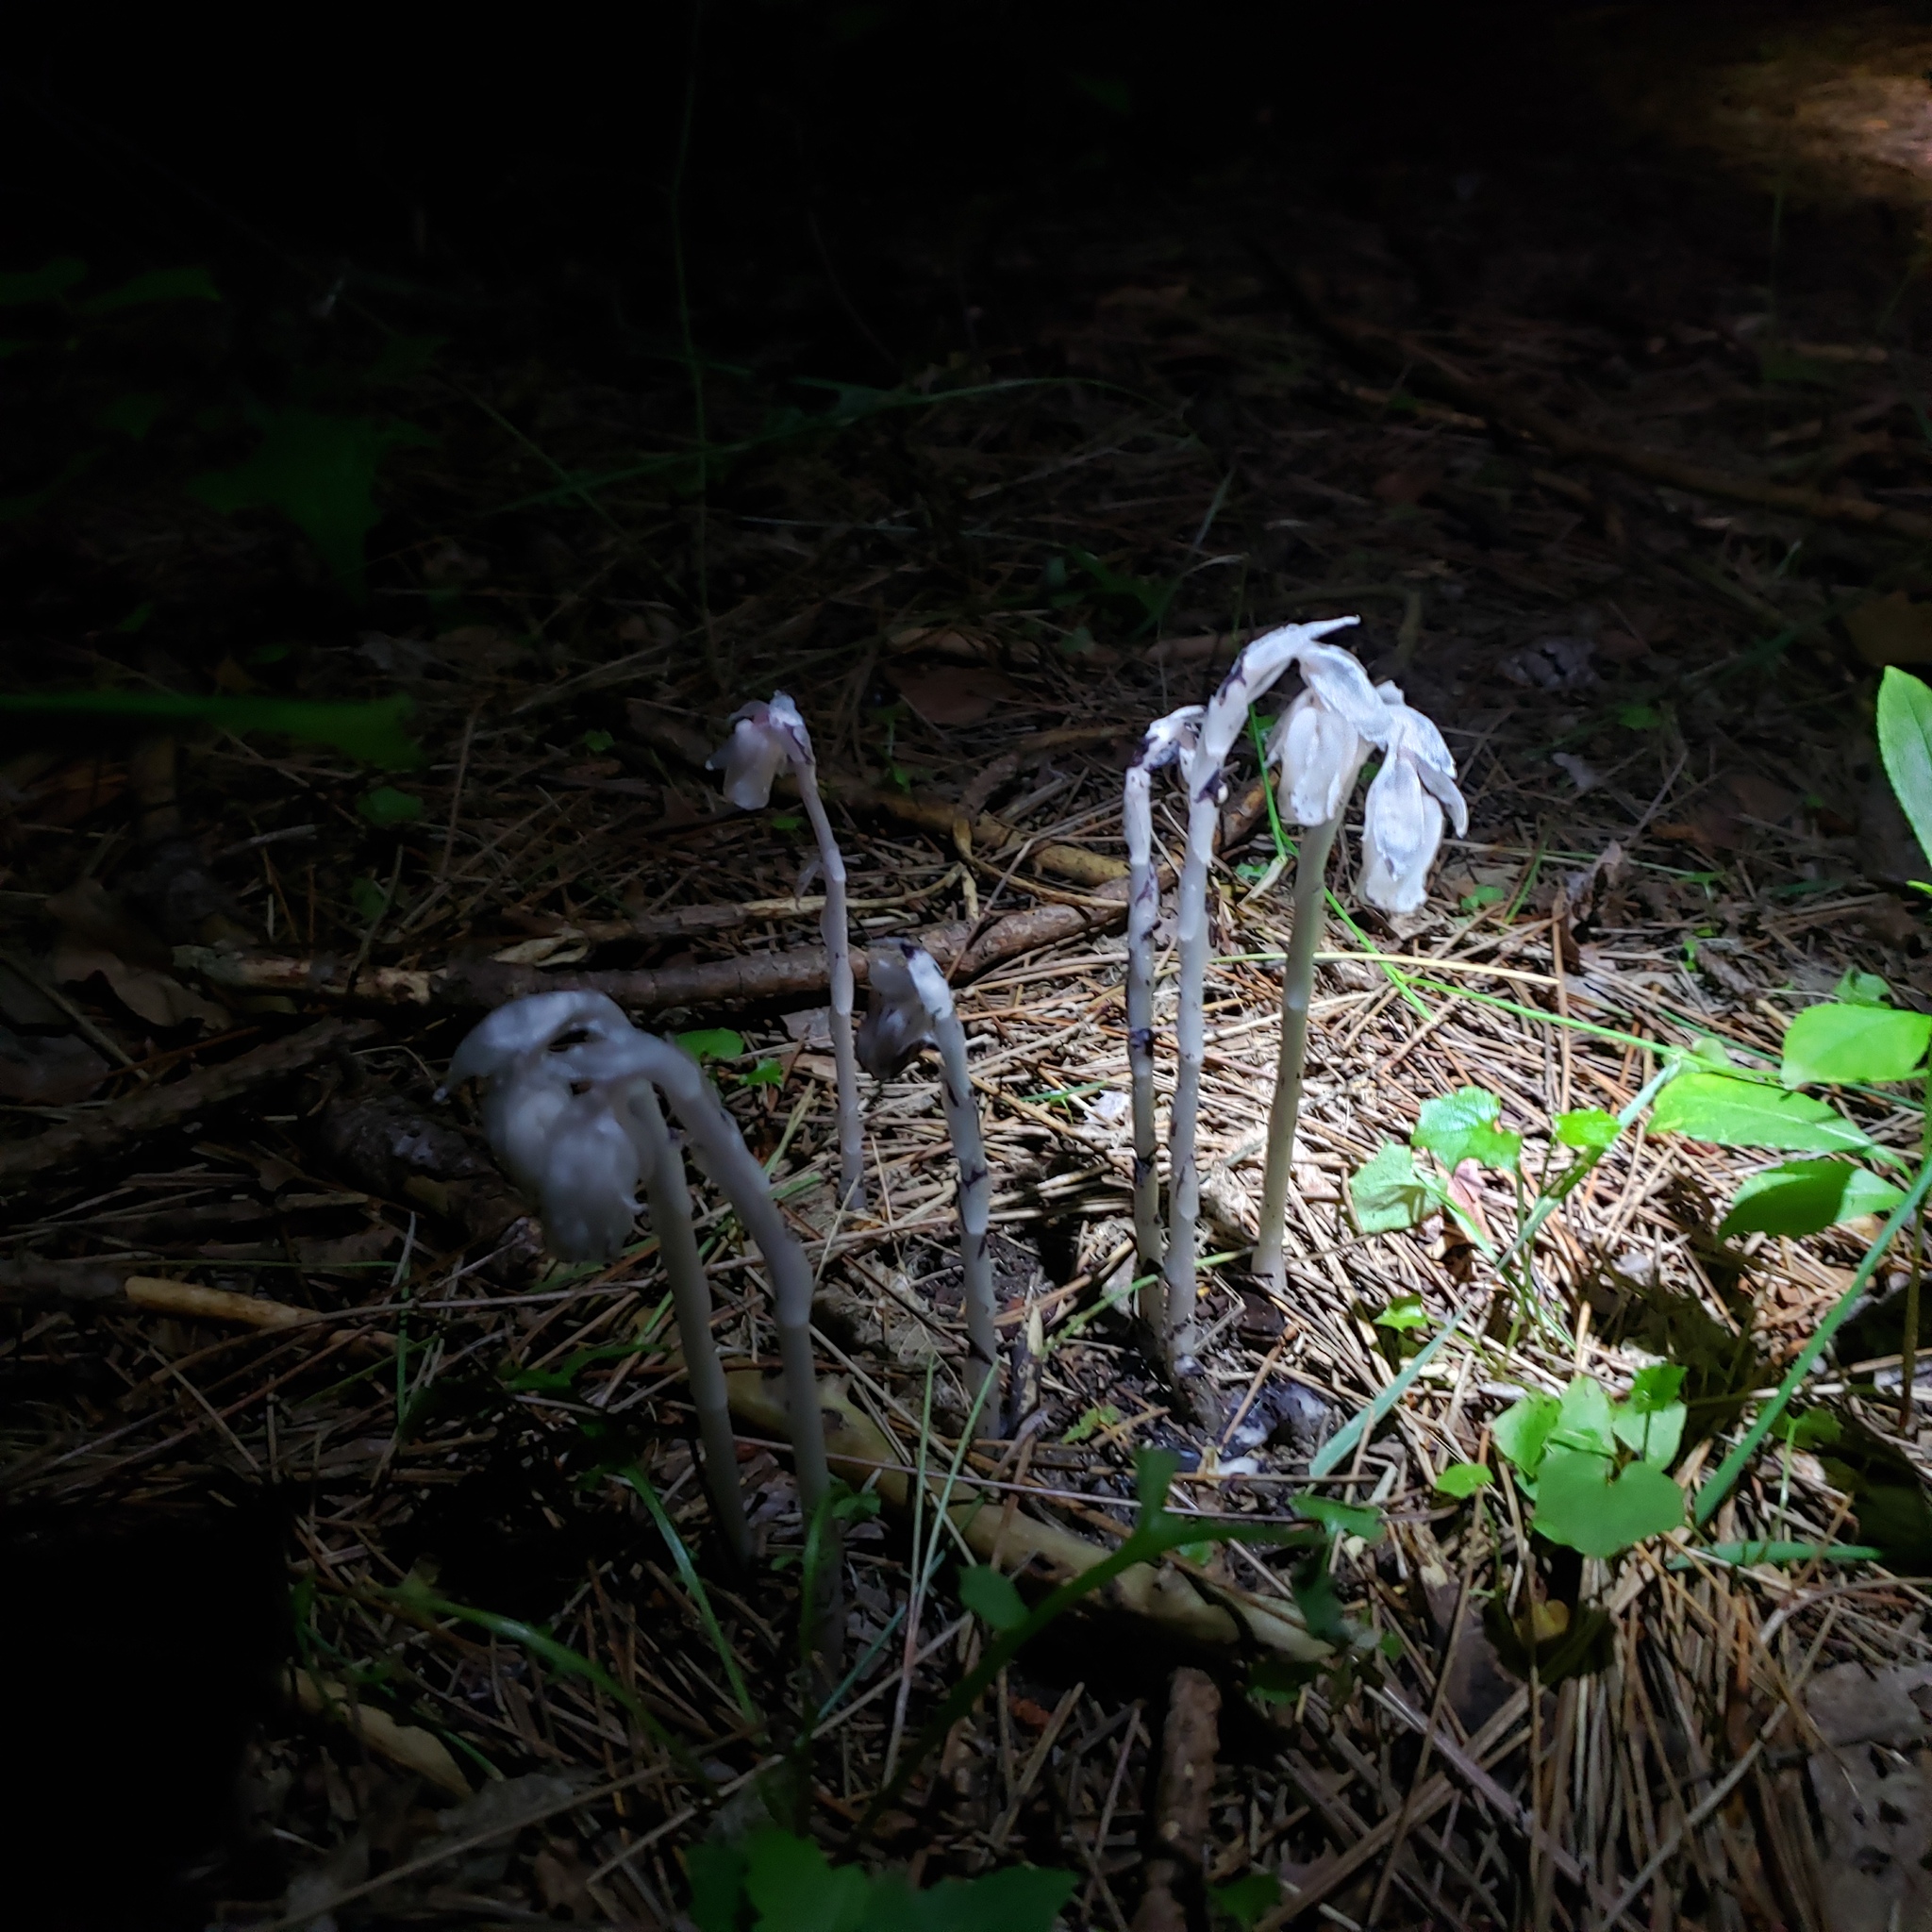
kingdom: Plantae
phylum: Tracheophyta
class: Magnoliopsida
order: Ericales
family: Ericaceae
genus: Monotropa
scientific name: Monotropa uniflora
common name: Convulsion root
